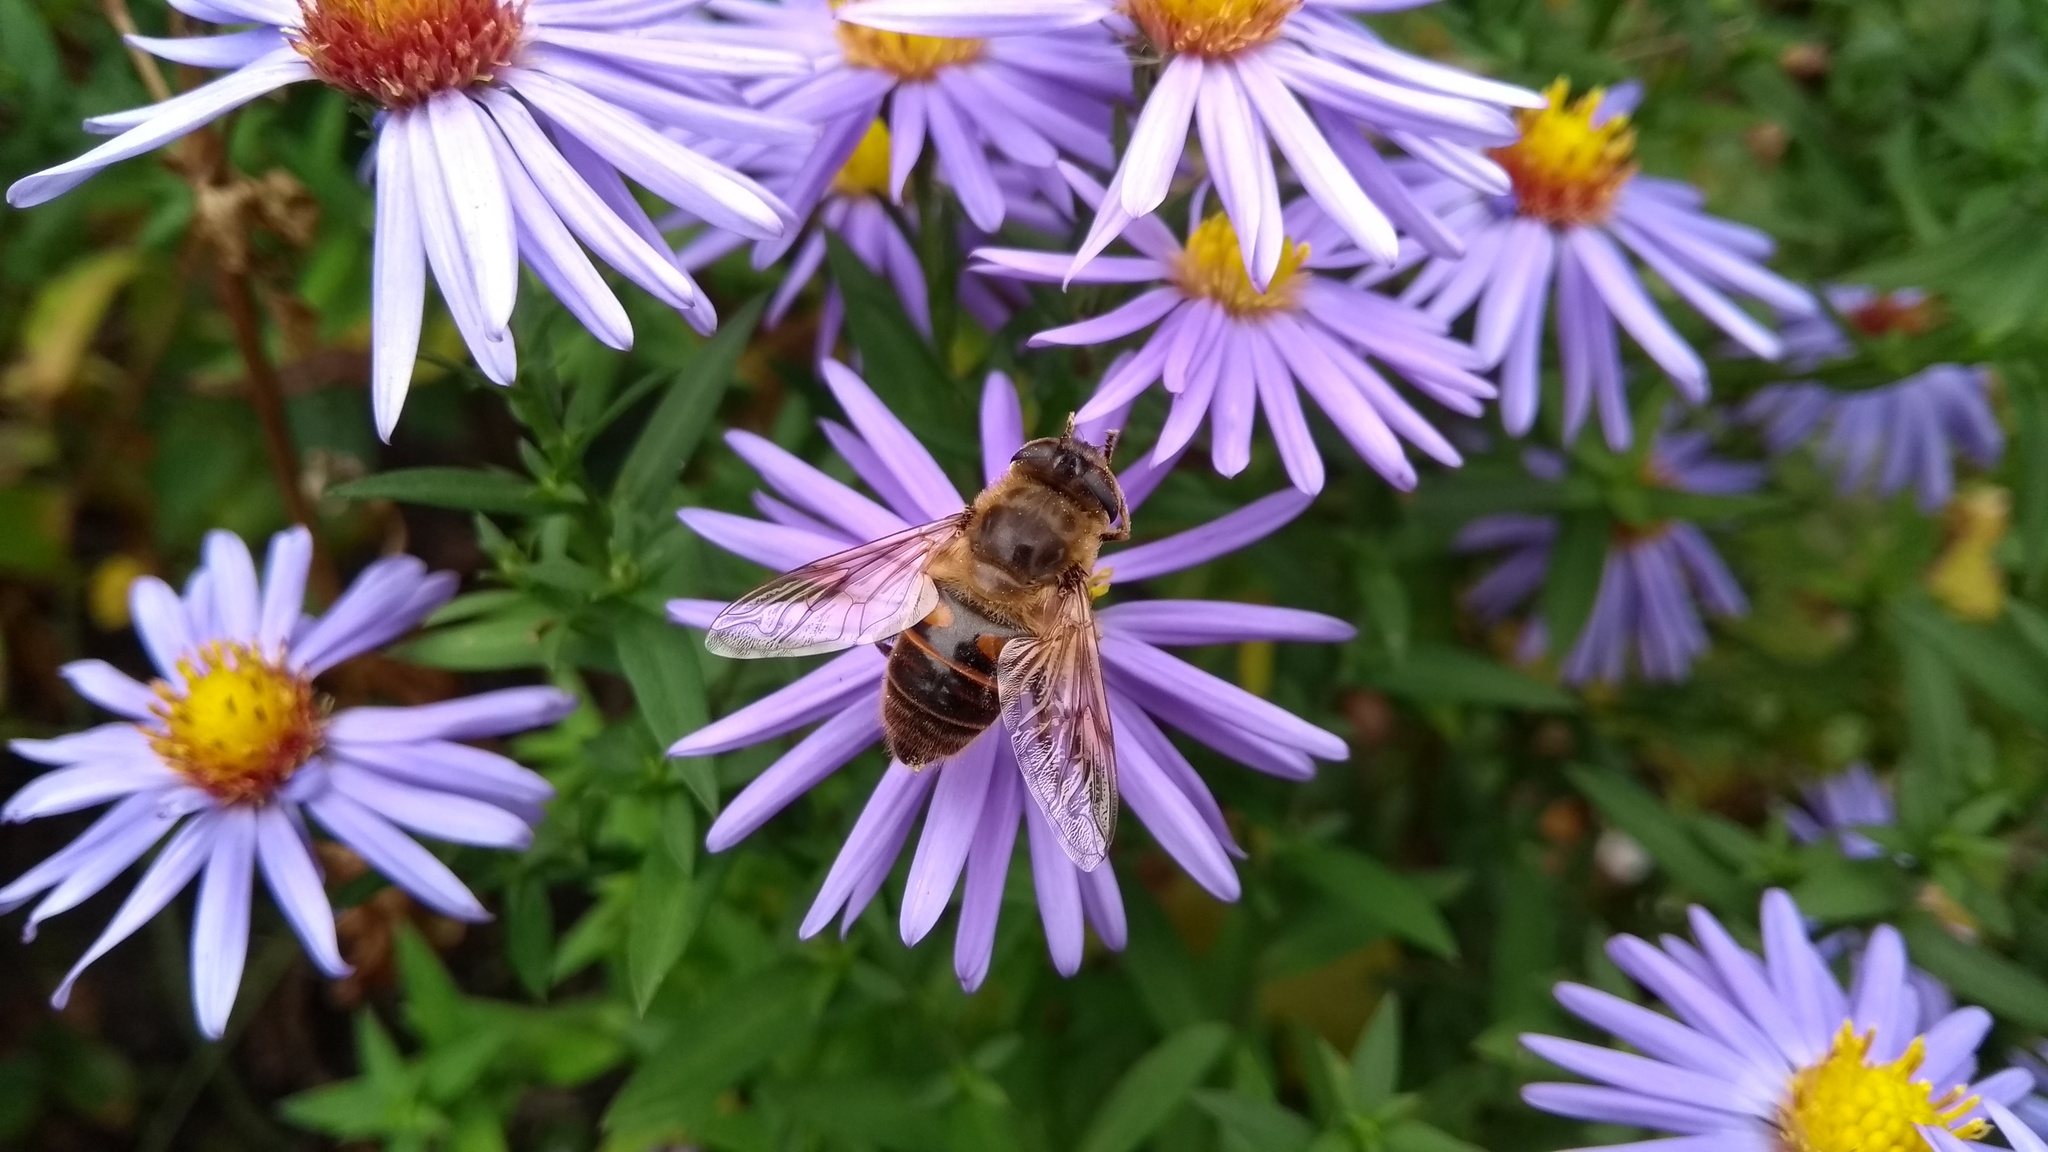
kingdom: Animalia
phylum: Arthropoda
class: Insecta
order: Diptera
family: Syrphidae
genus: Eristalis
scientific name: Eristalis tenax
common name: Drone fly
